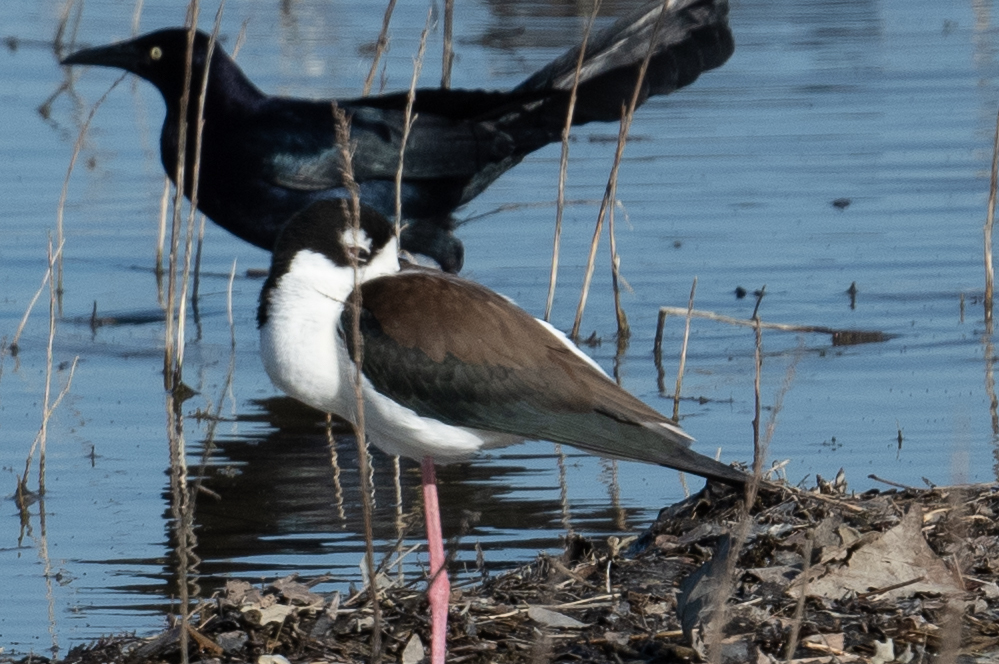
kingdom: Animalia
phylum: Chordata
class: Aves
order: Charadriiformes
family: Recurvirostridae
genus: Himantopus
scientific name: Himantopus mexicanus
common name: Black-necked stilt
